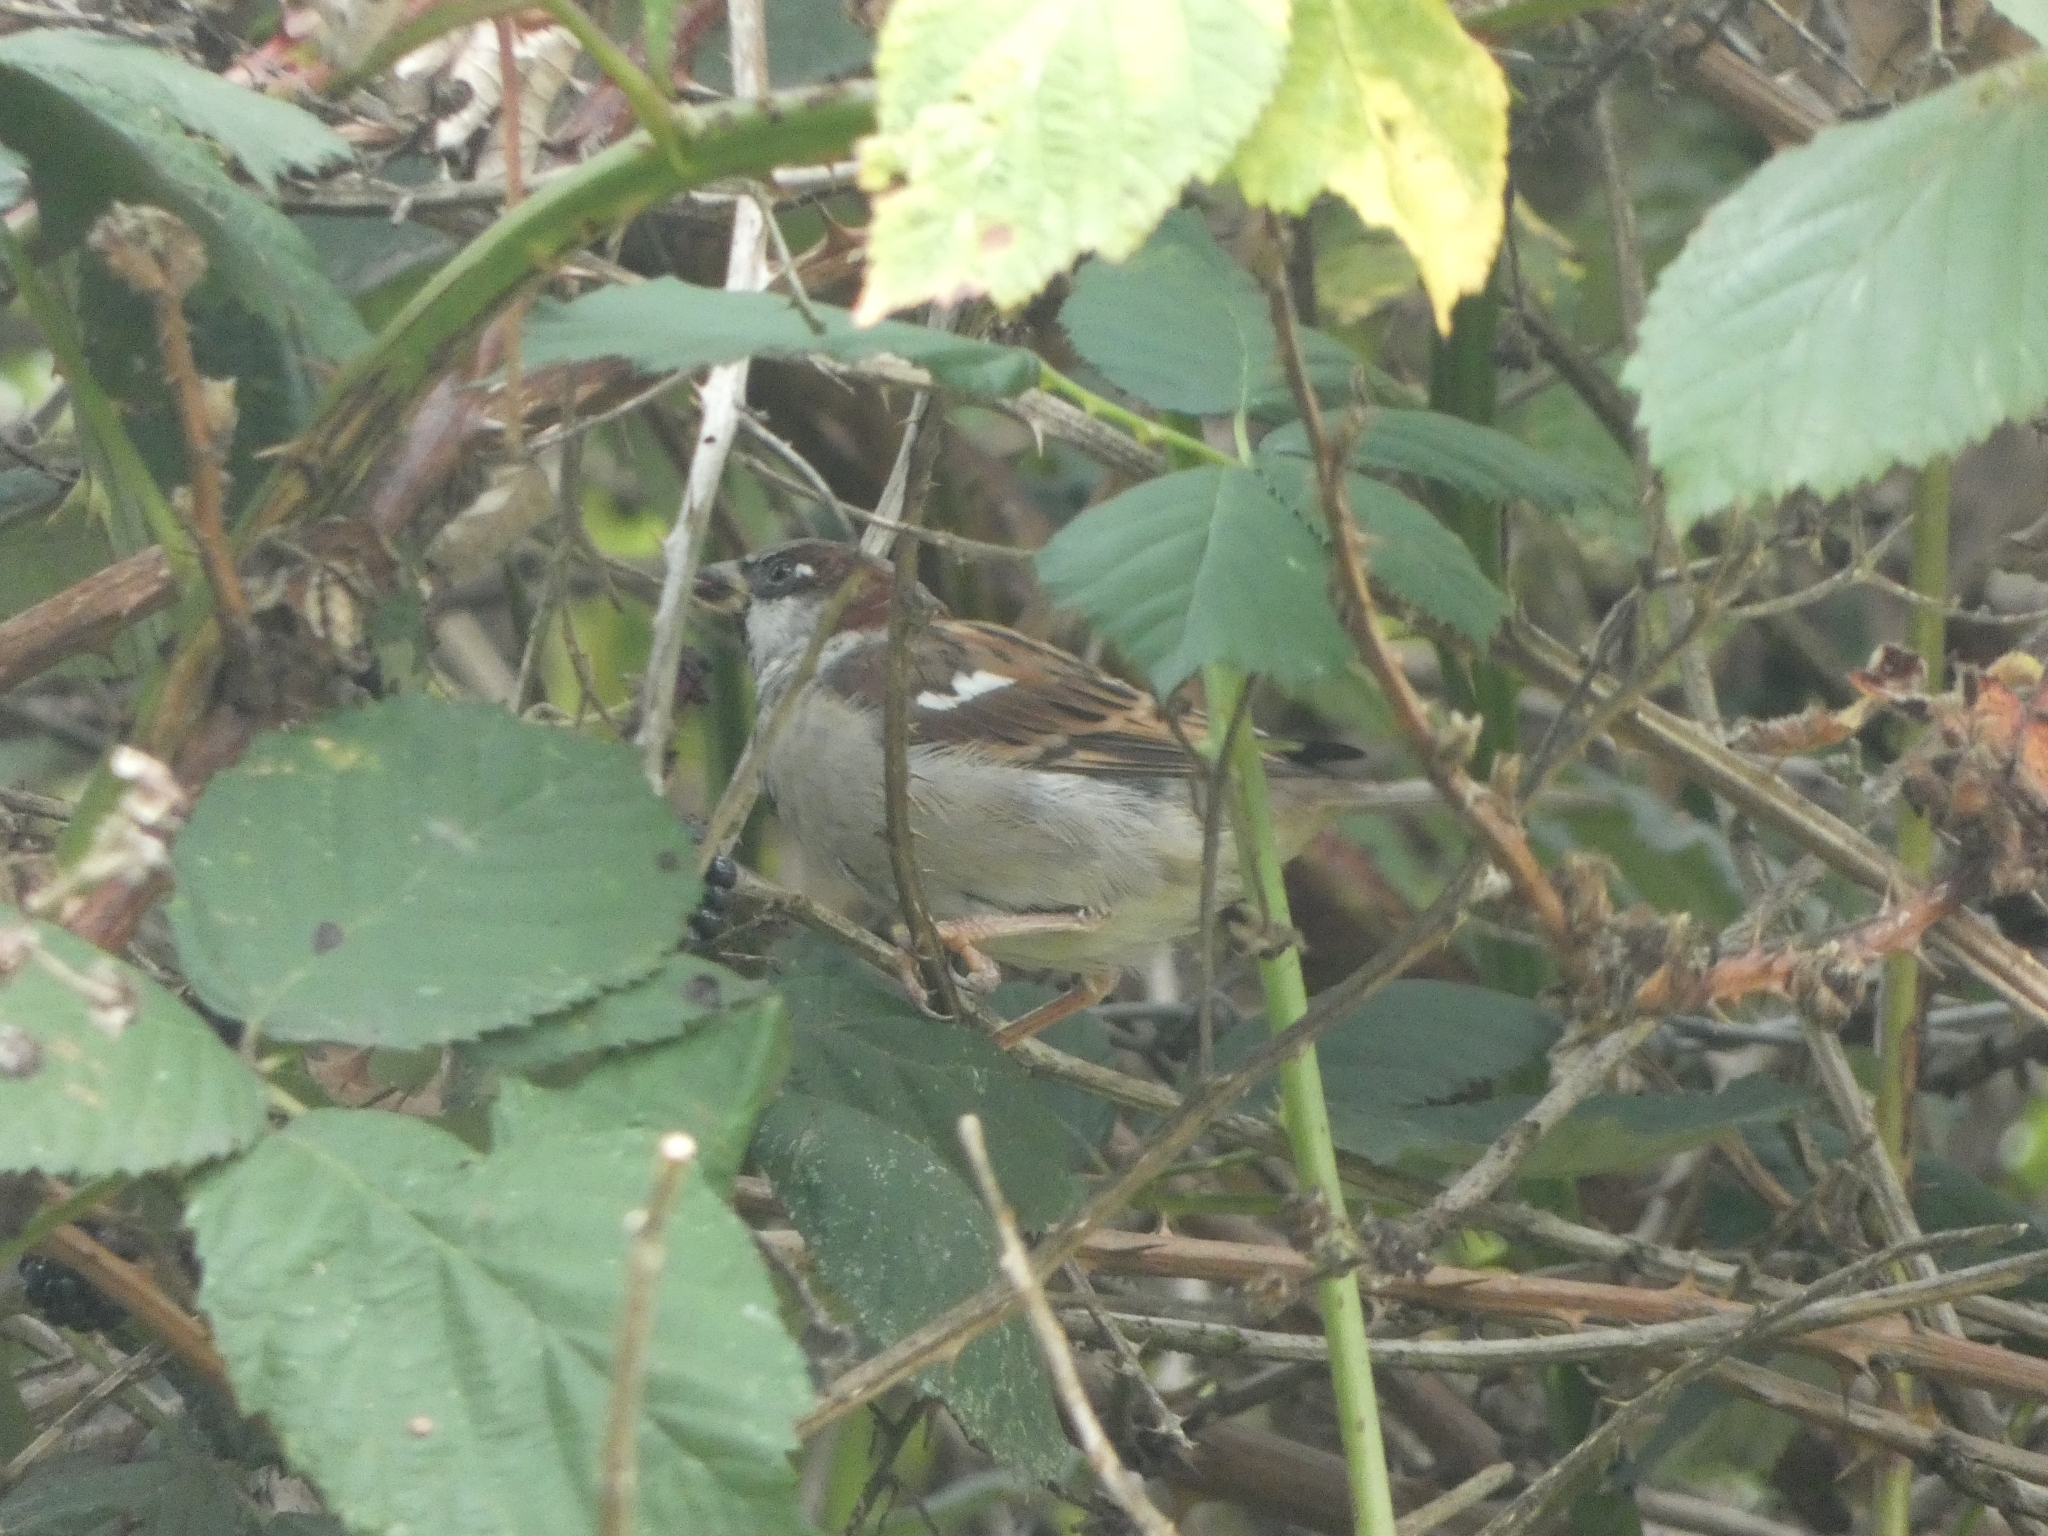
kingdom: Animalia
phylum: Chordata
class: Aves
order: Passeriformes
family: Passeridae
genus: Passer
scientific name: Passer domesticus
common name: House sparrow
